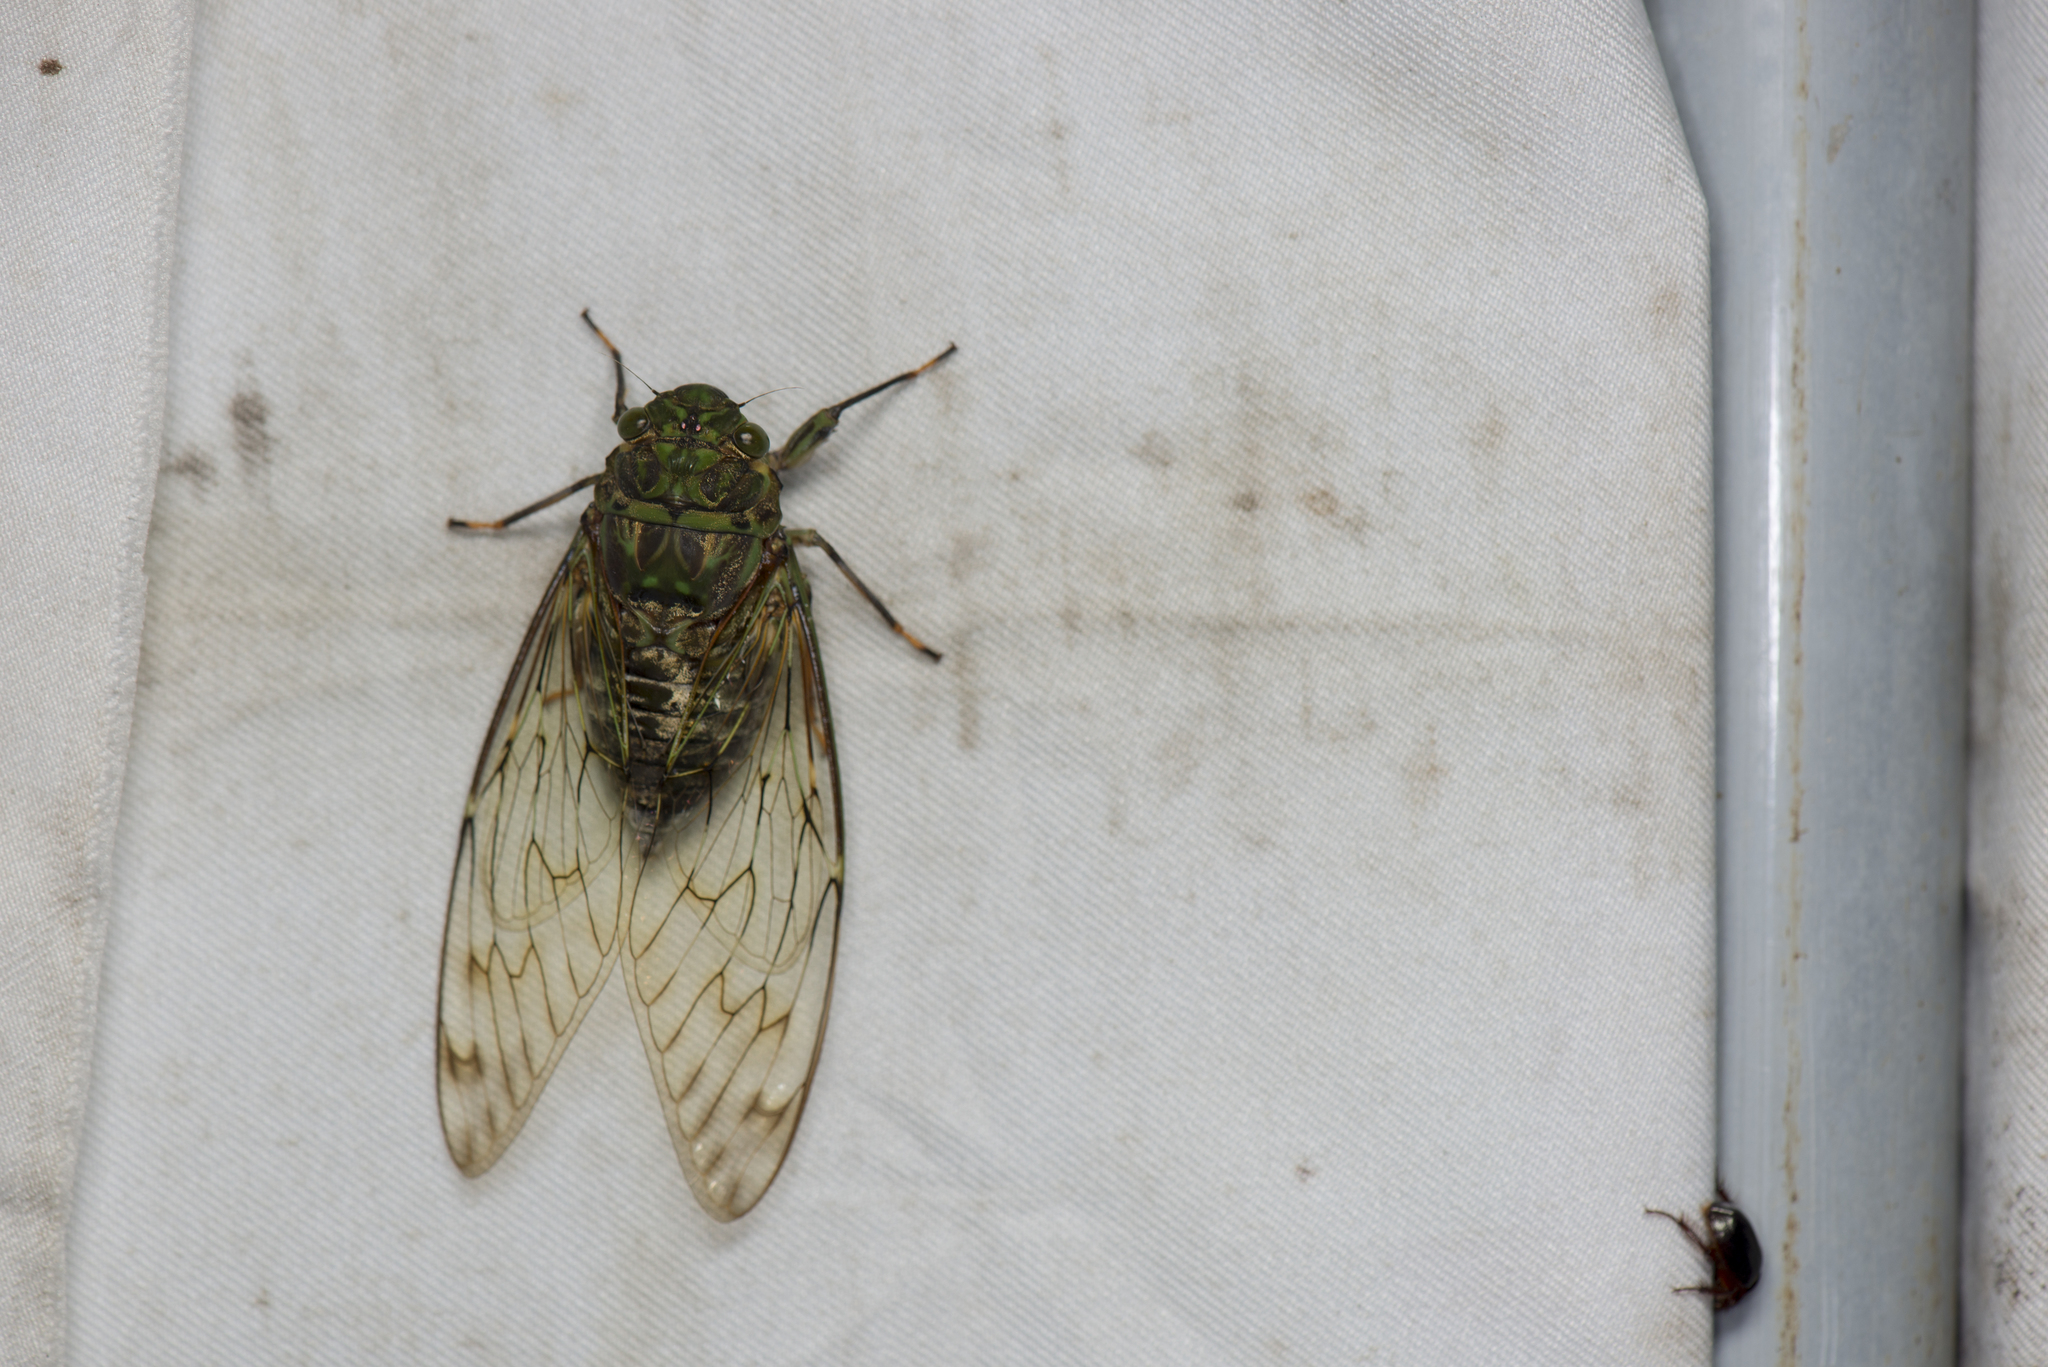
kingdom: Animalia
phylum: Arthropoda
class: Insecta
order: Hemiptera
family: Cicadidae
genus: Pomponia
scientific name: Pomponia yayeyamana
